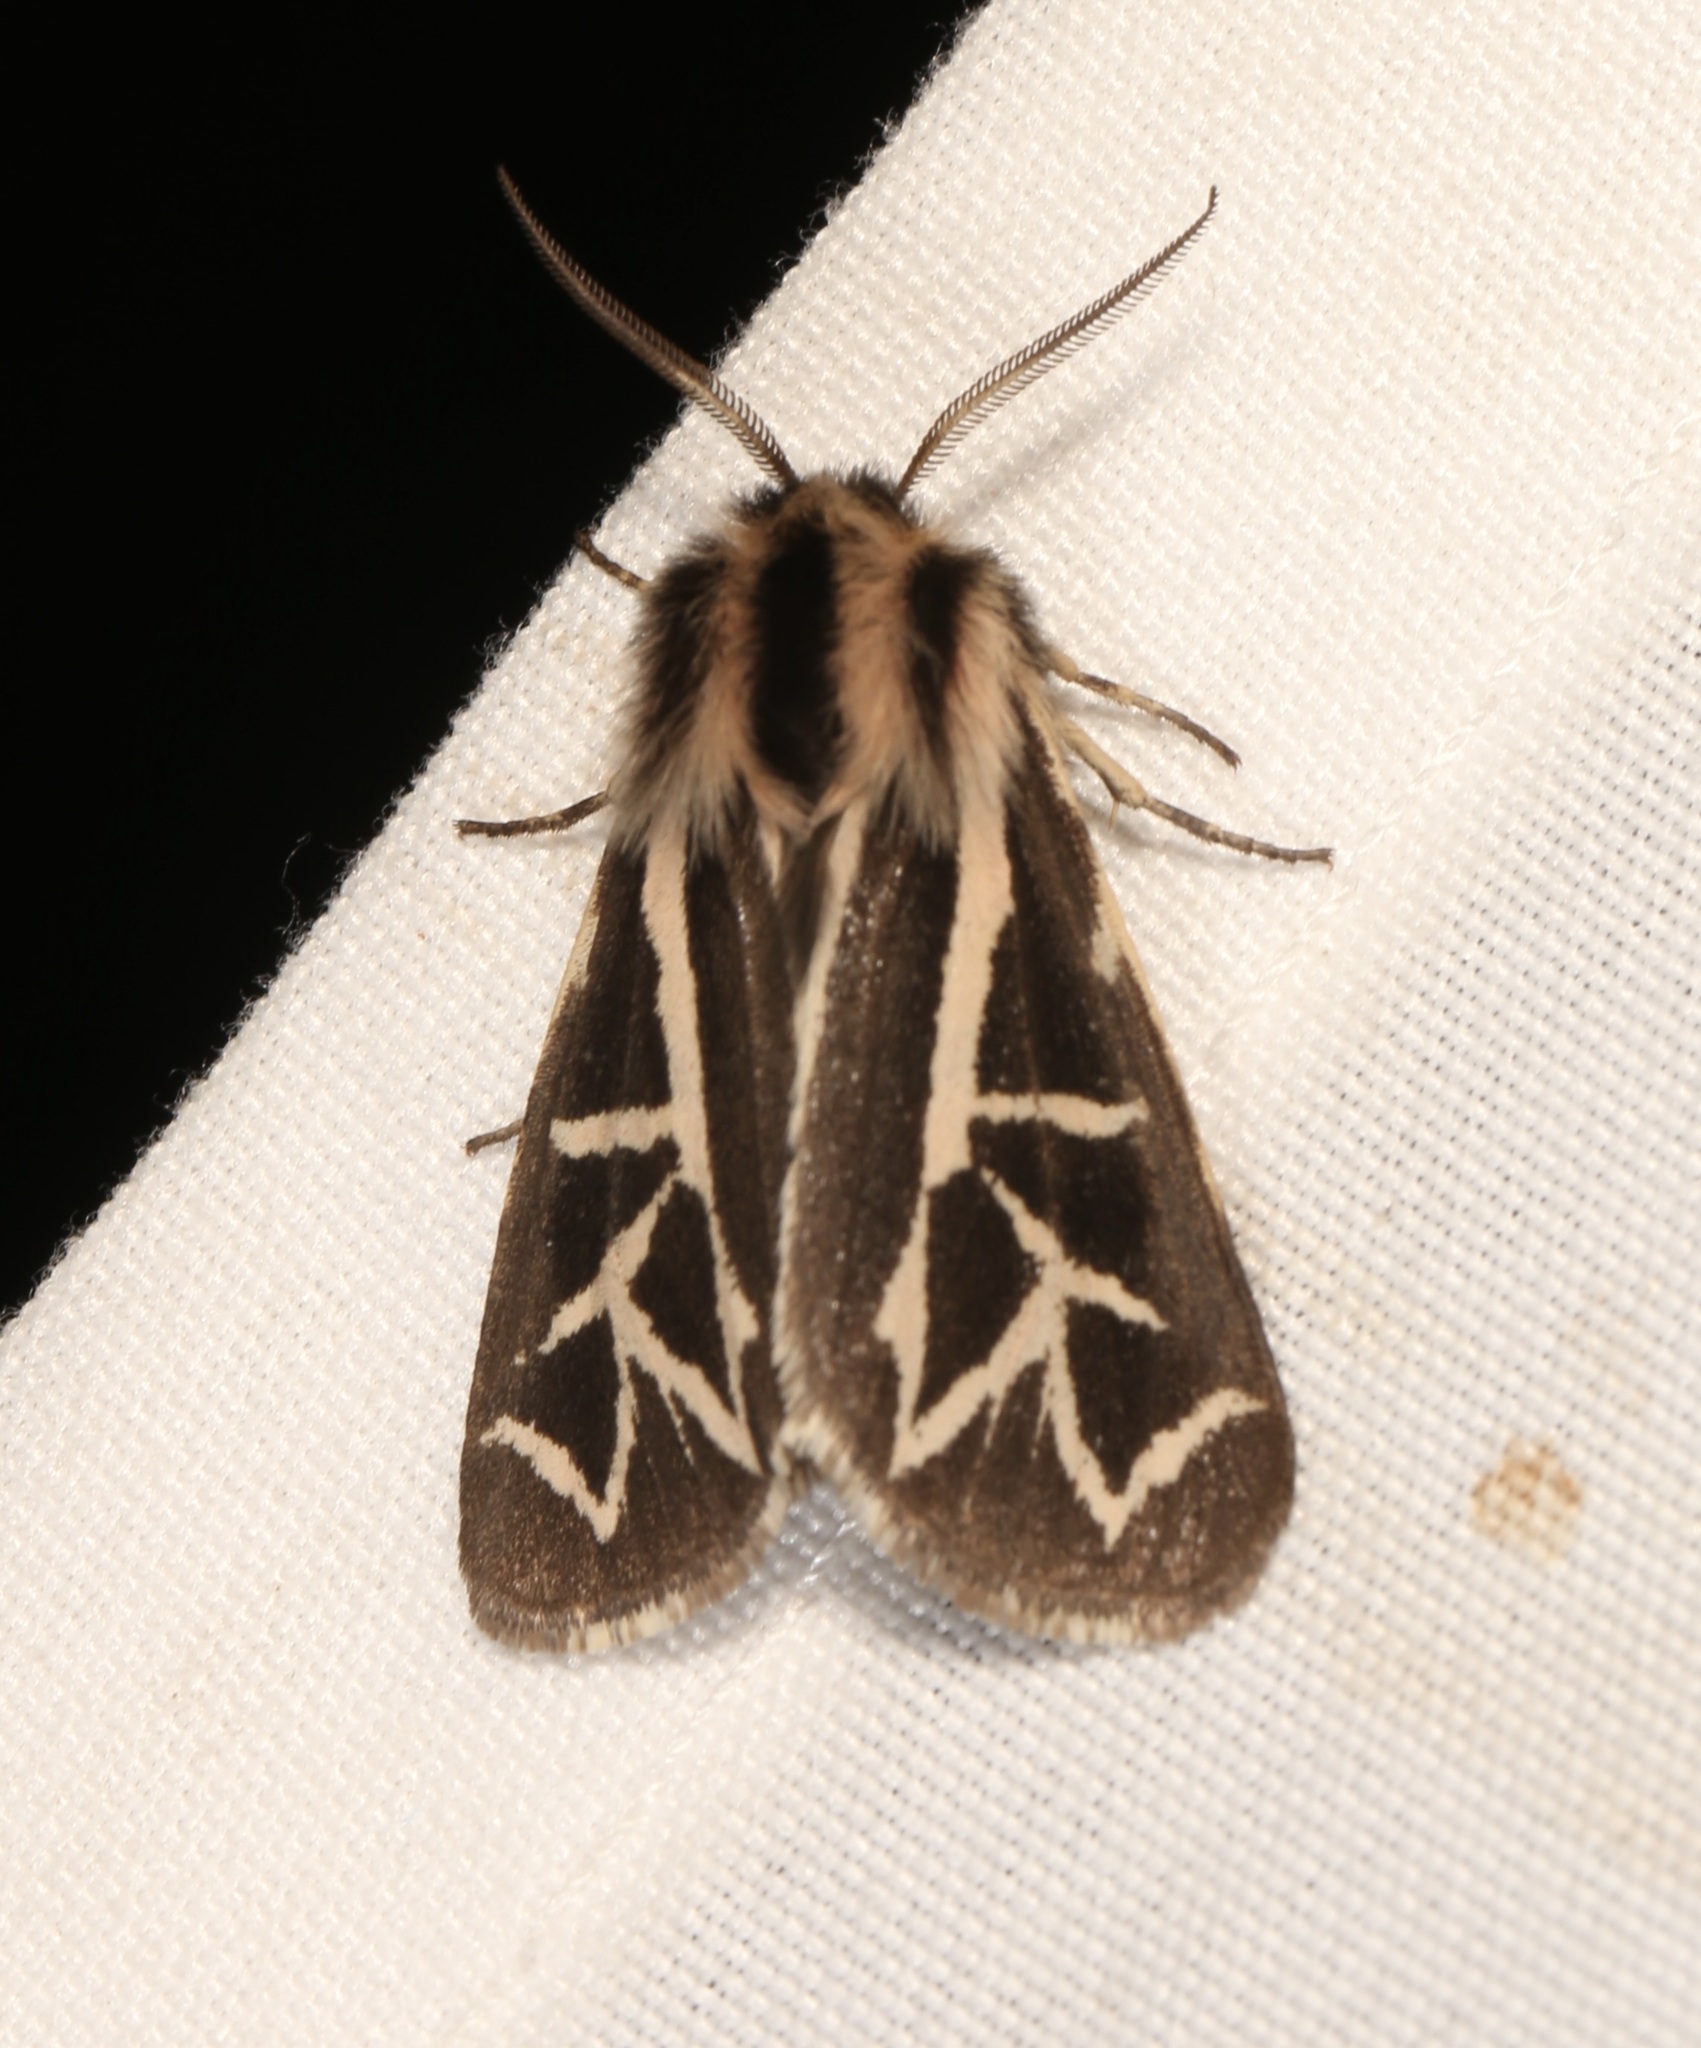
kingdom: Animalia
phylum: Arthropoda
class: Insecta
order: Lepidoptera
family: Erebidae
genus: Apantesis
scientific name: Apantesis
